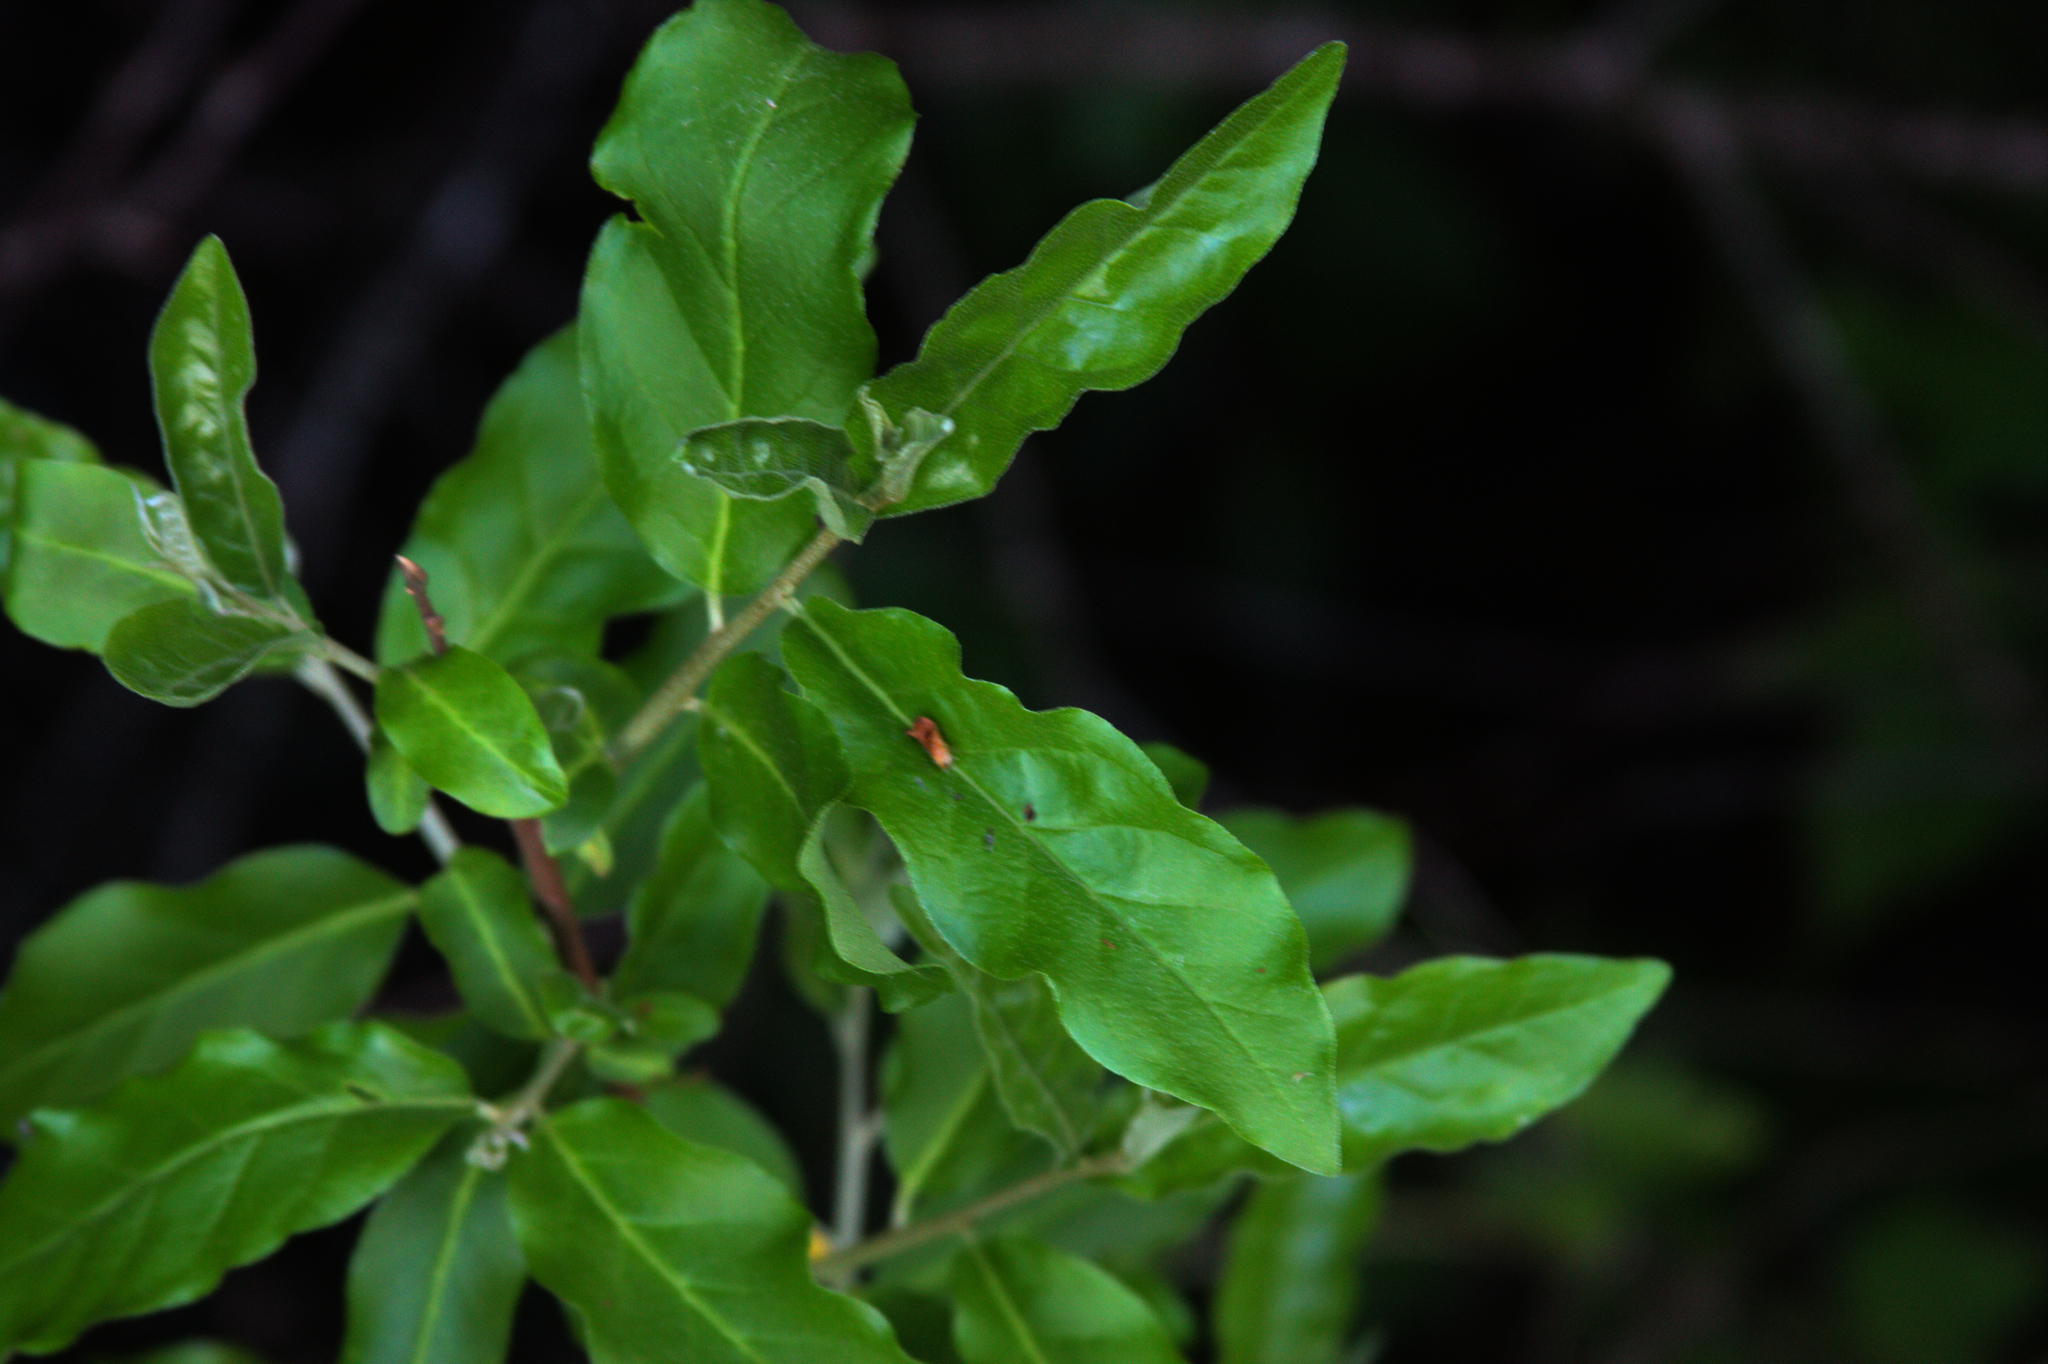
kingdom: Plantae
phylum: Tracheophyta
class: Magnoliopsida
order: Rosales
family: Elaeagnaceae
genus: Elaeagnus
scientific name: Elaeagnus umbellata
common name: Autumn olive
